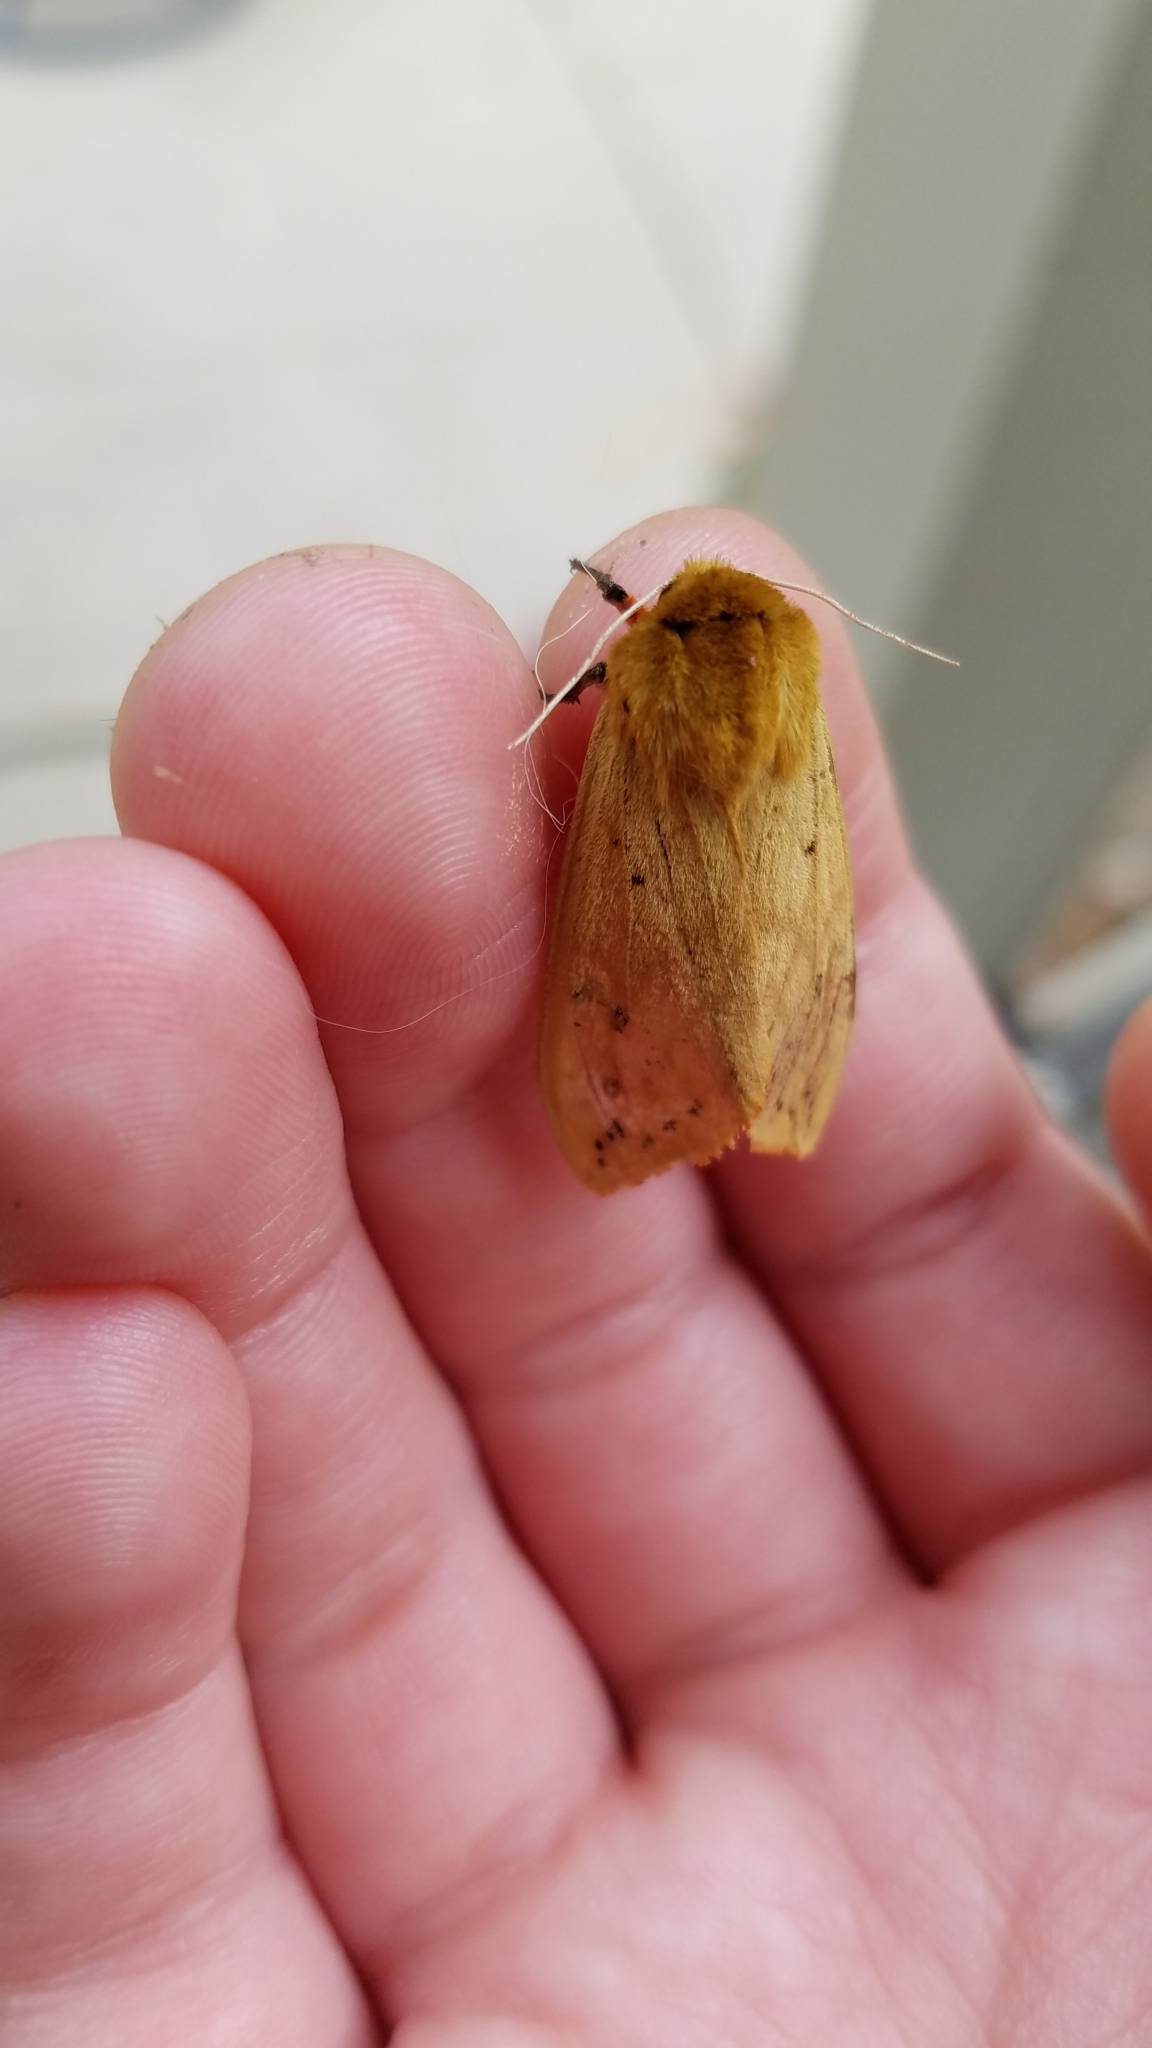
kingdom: Animalia
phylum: Arthropoda
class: Insecta
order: Lepidoptera
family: Erebidae
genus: Pyrrharctia
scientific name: Pyrrharctia isabella
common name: Isabella tiger moth
